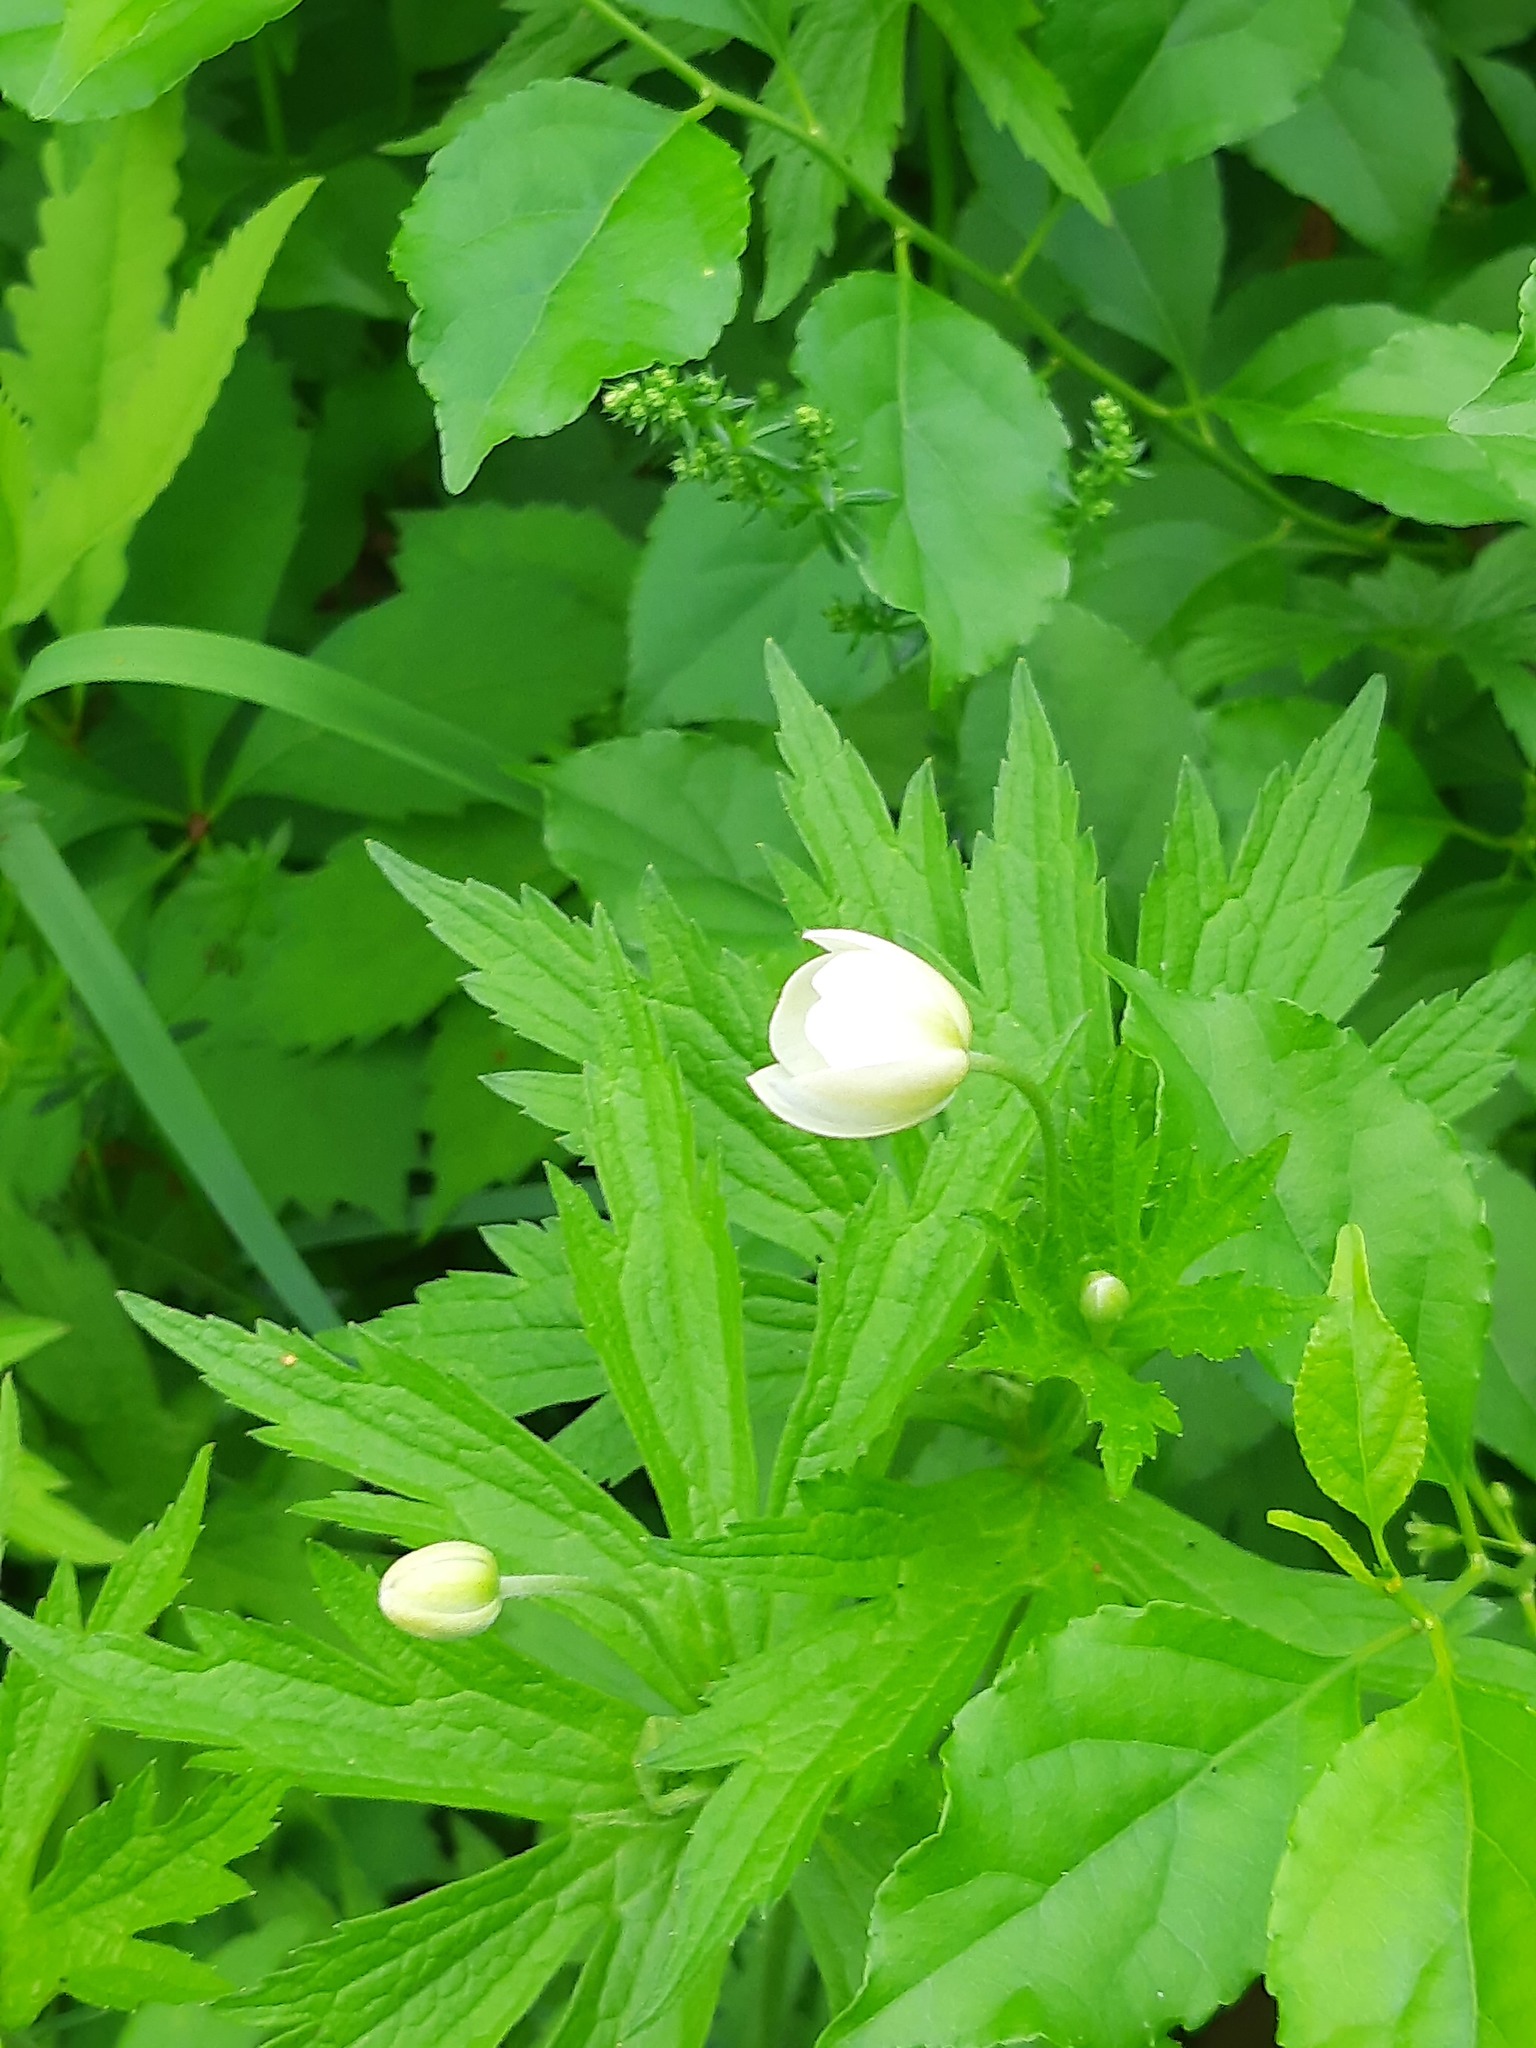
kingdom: Plantae
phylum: Tracheophyta
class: Magnoliopsida
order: Ranunculales
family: Ranunculaceae
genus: Anemonastrum
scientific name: Anemonastrum canadense
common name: Canada anemone
